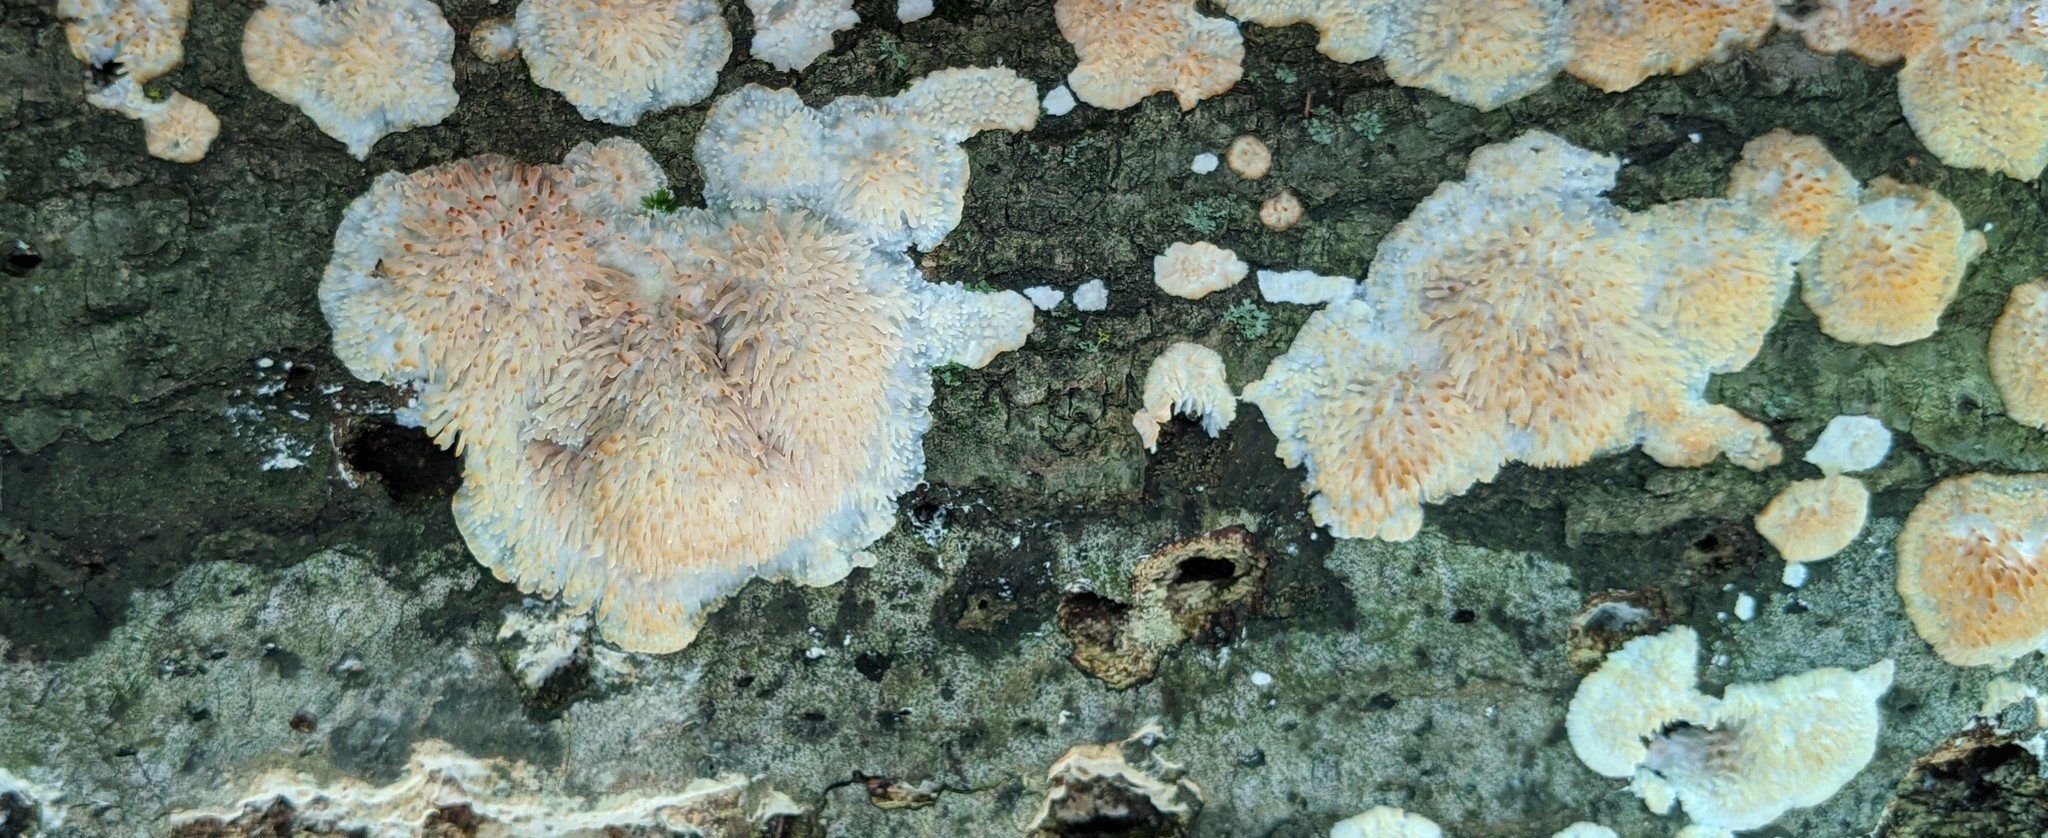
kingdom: Fungi
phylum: Basidiomycota
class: Agaricomycetes
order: Agaricales
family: Radulomycetaceae
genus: Radulomyces
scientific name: Radulomyces copelandii
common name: Asian beauty
